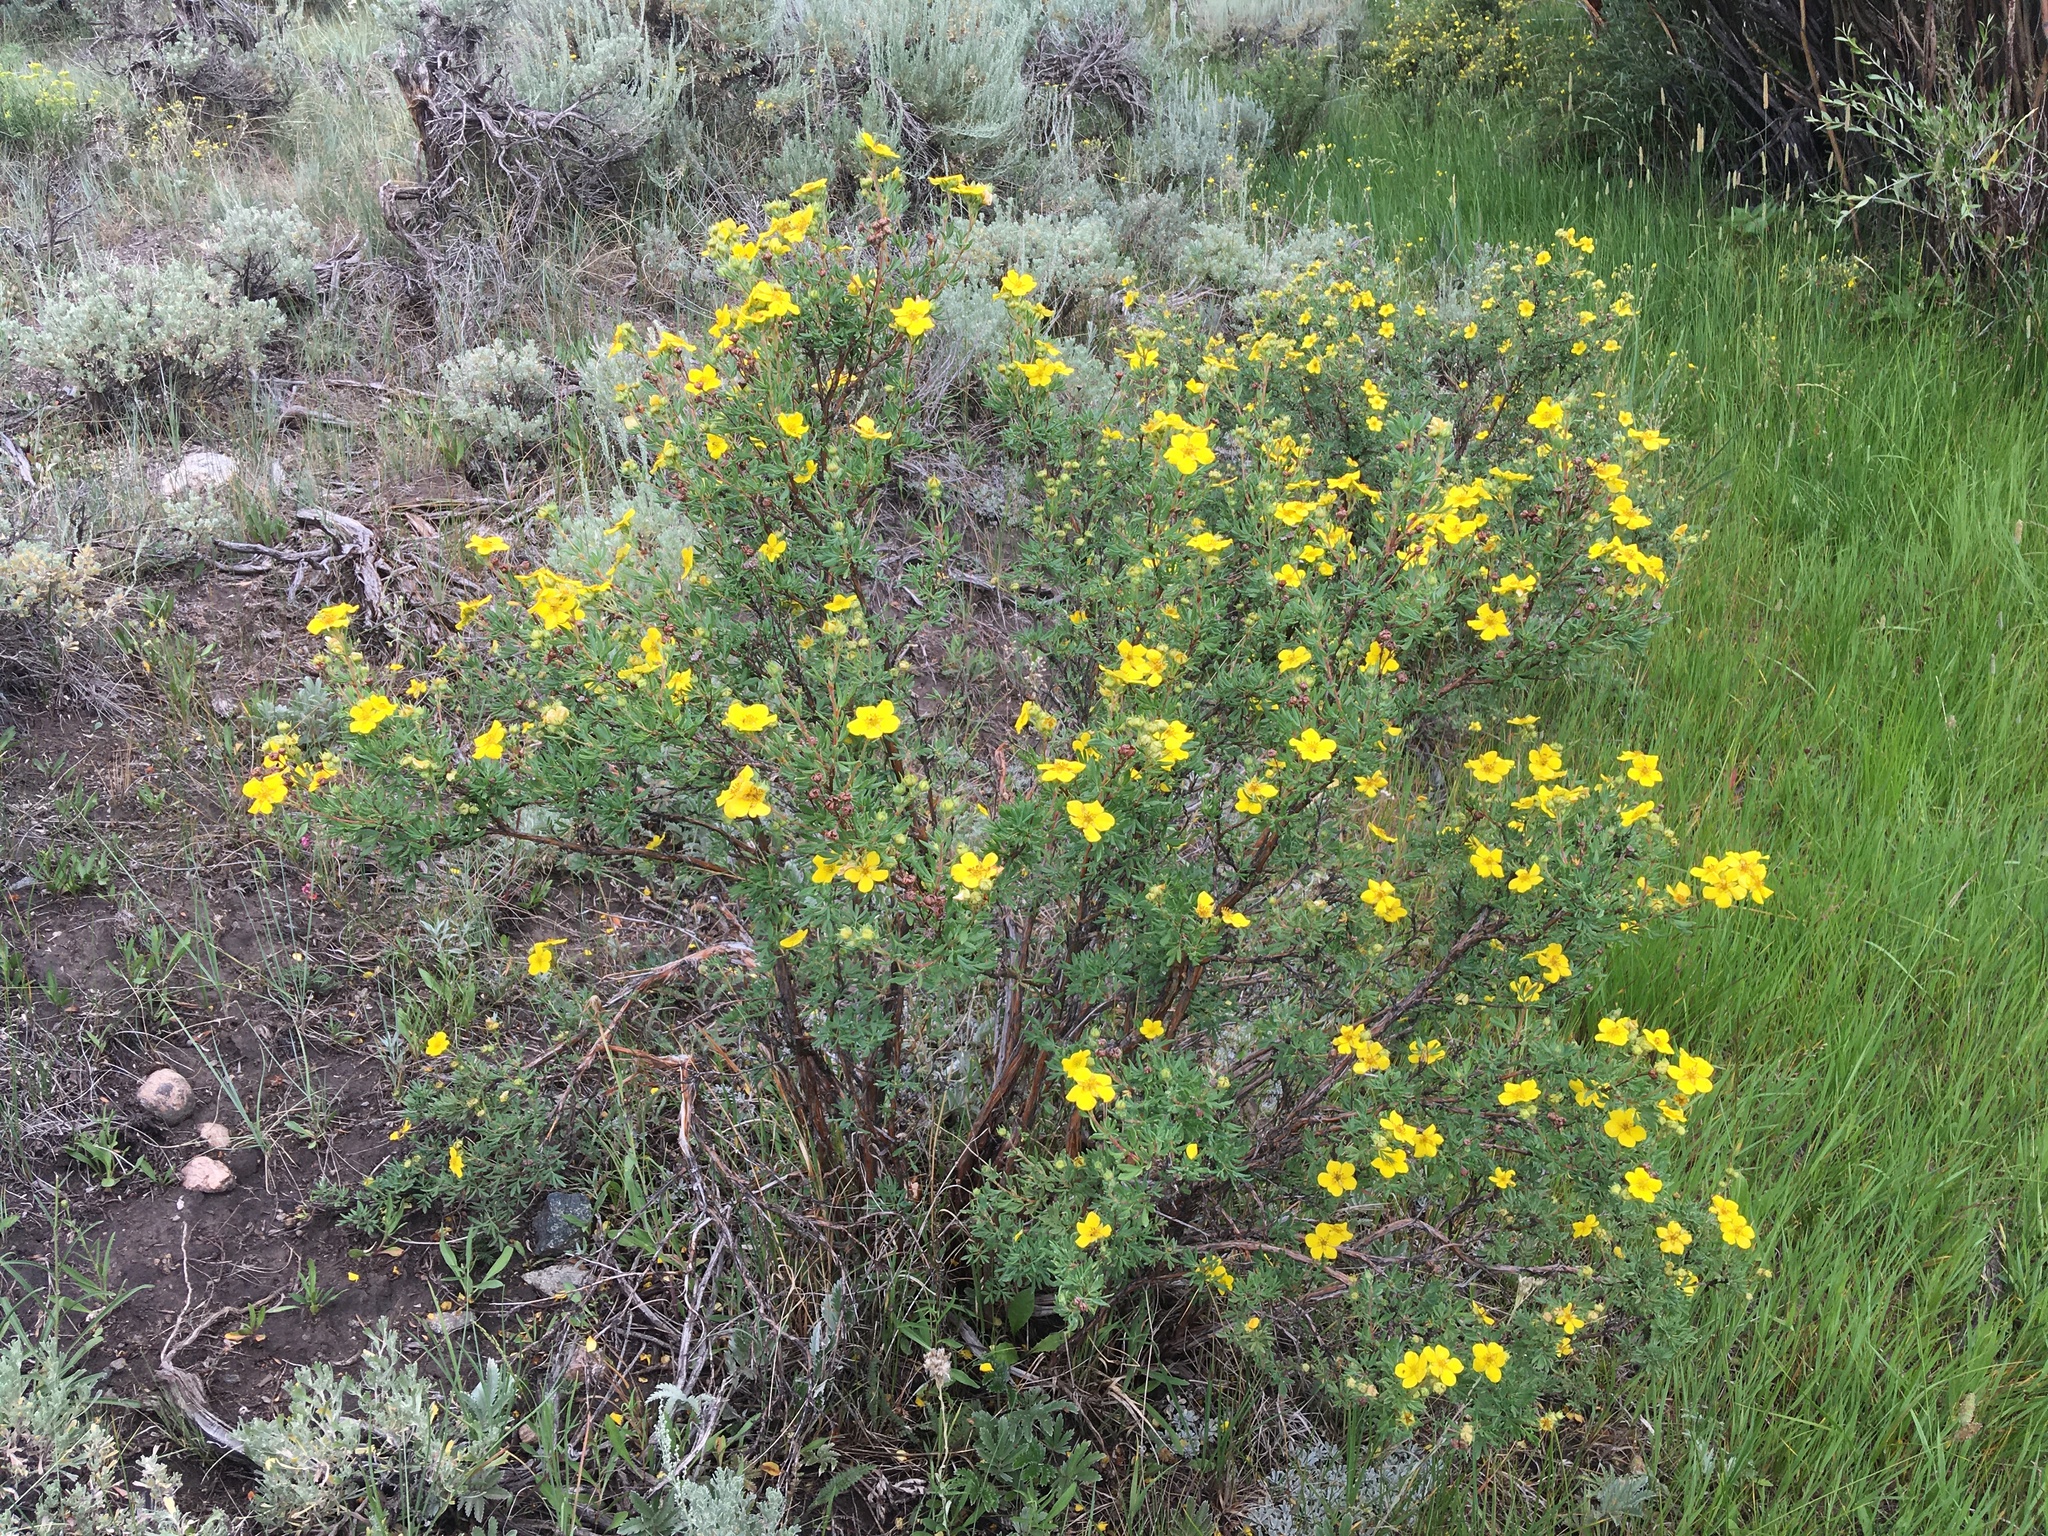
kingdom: Plantae
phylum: Tracheophyta
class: Magnoliopsida
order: Rosales
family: Rosaceae
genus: Dasiphora
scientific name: Dasiphora fruticosa
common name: Shrubby cinquefoil
